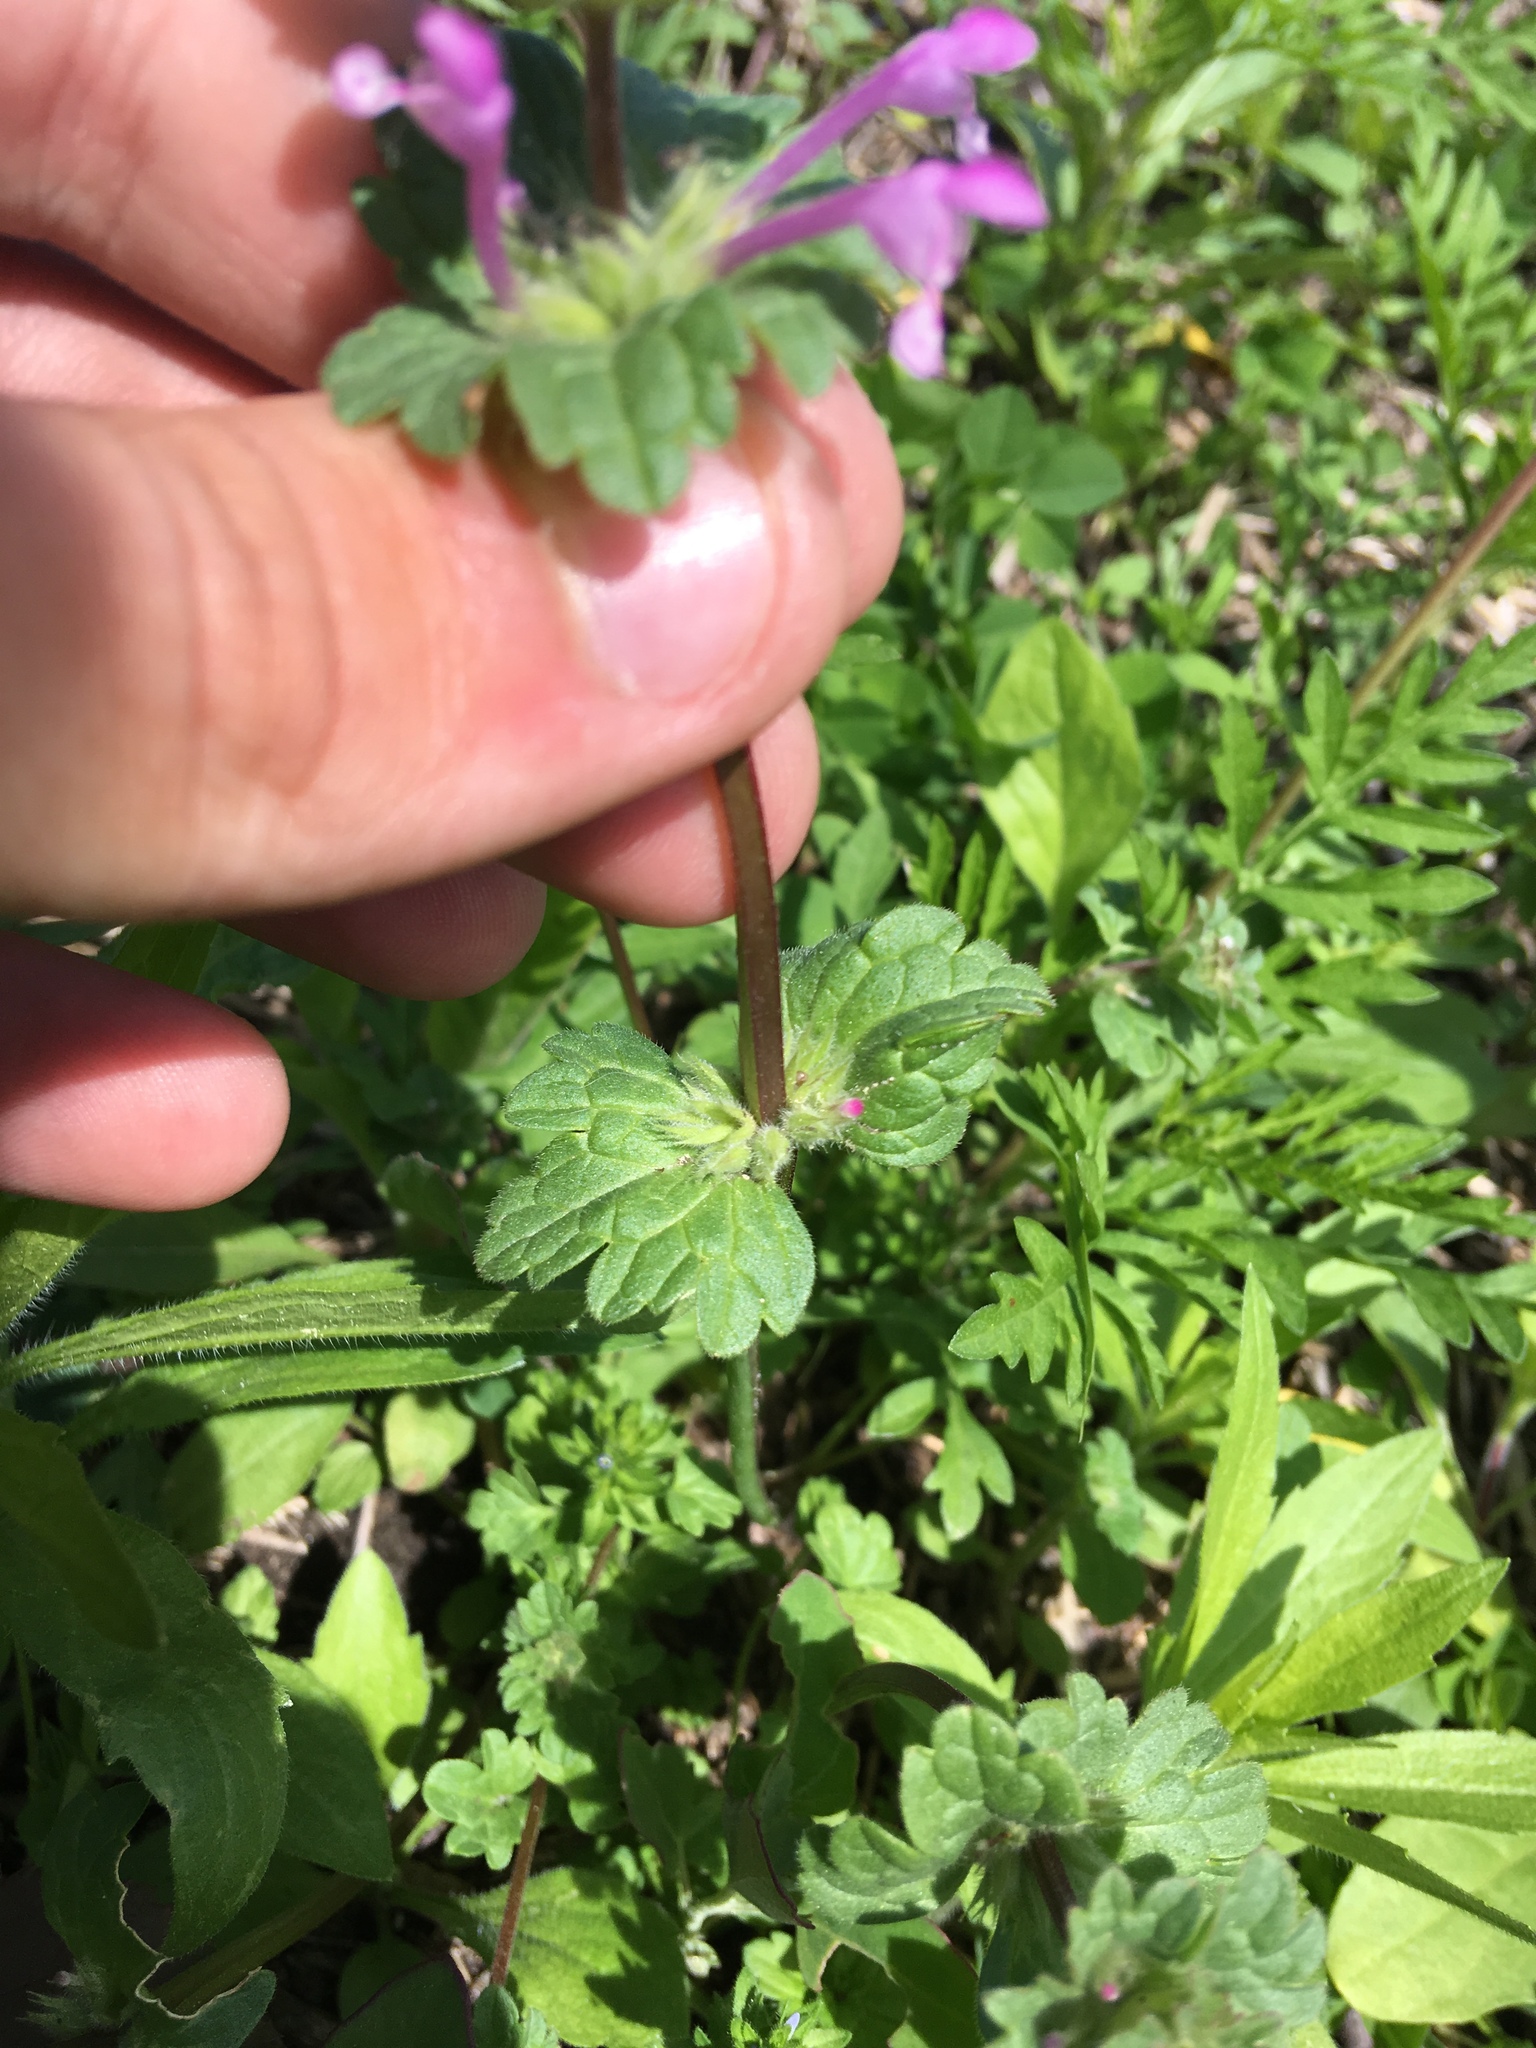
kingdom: Plantae
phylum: Tracheophyta
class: Magnoliopsida
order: Lamiales
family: Lamiaceae
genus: Lamium
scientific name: Lamium amplexicaule
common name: Henbit dead-nettle
